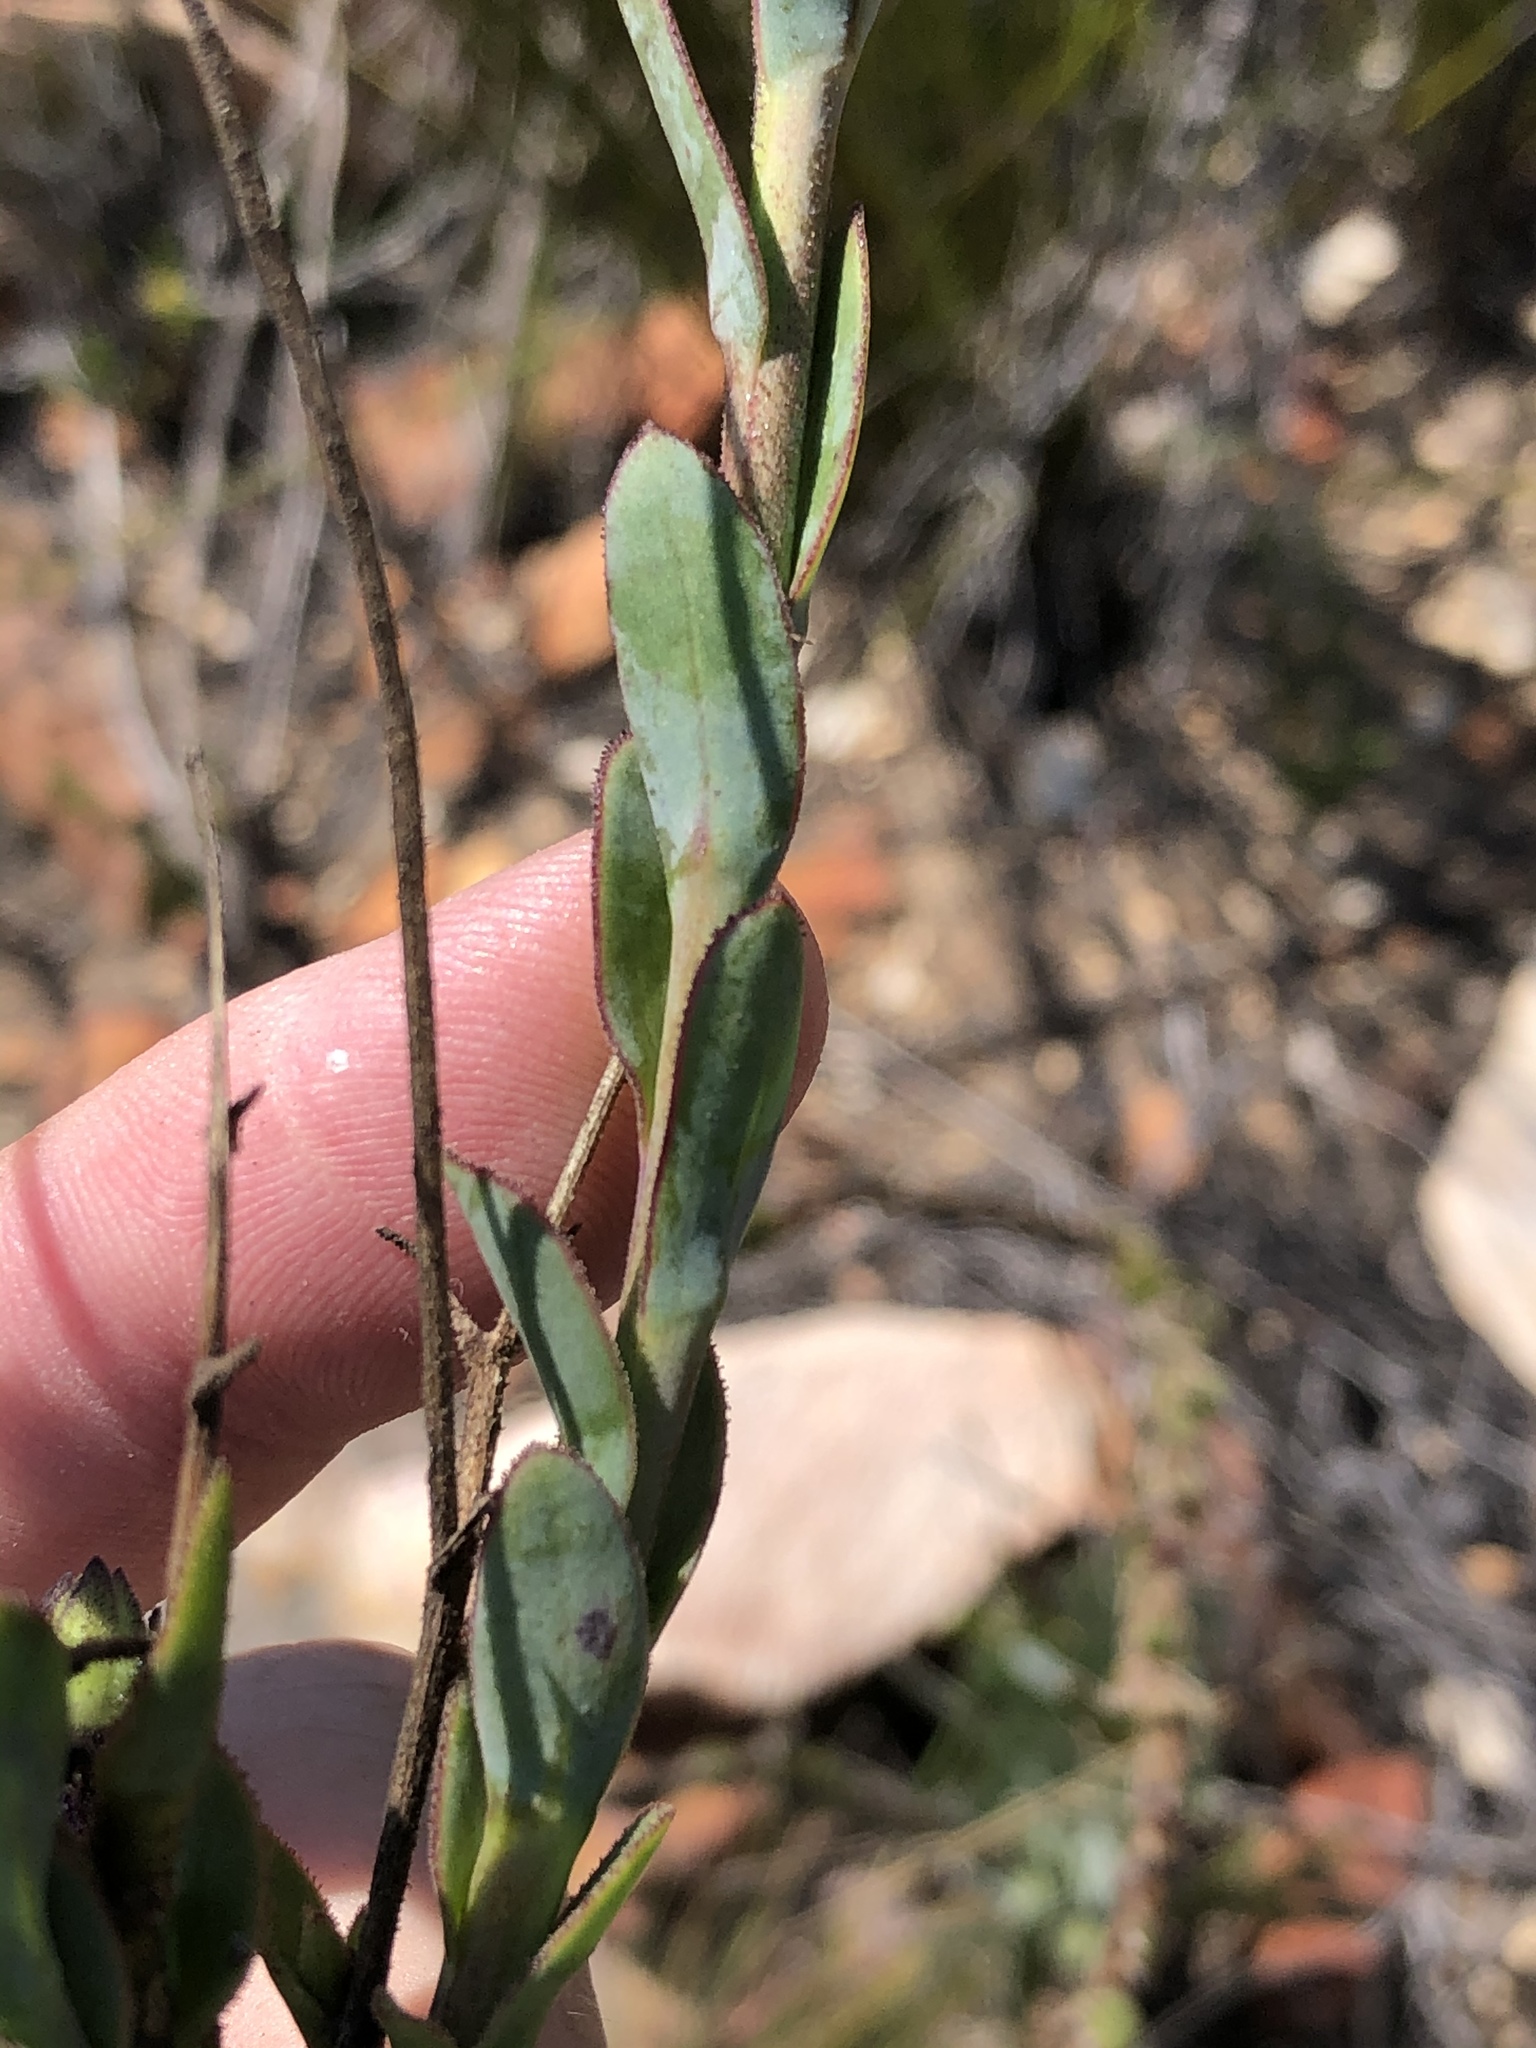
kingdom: Plantae
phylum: Tracheophyta
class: Magnoliopsida
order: Asterales
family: Asteraceae
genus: Osteospermum
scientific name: Osteospermum polygaloides
